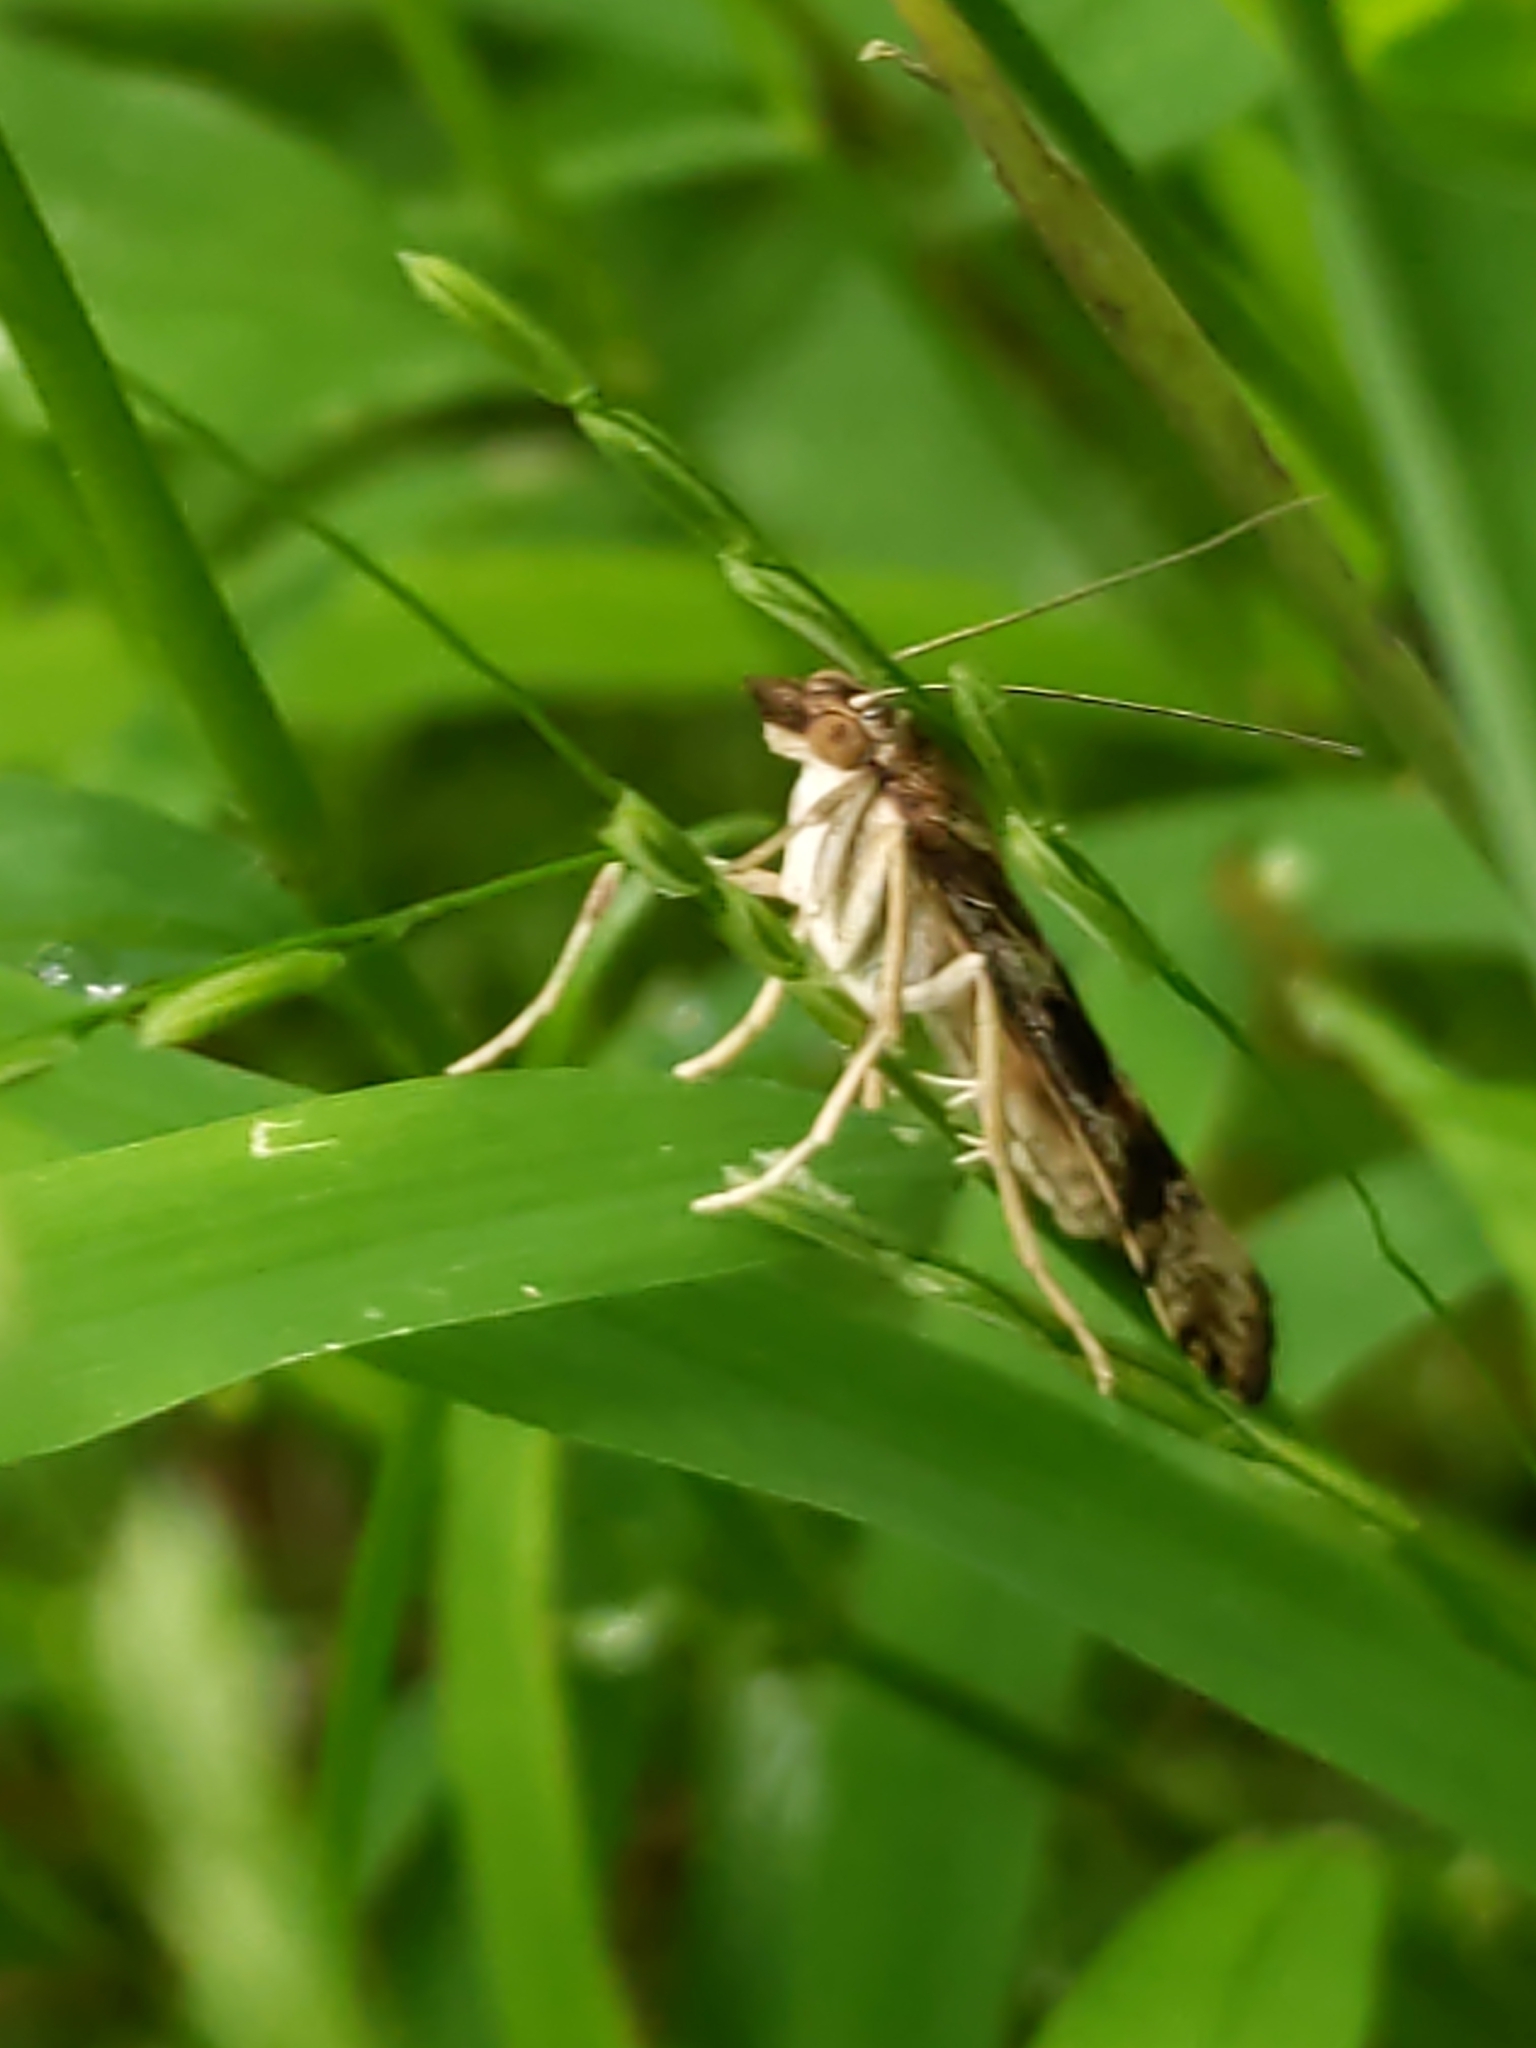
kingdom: Animalia
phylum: Arthropoda
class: Insecta
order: Lepidoptera
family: Crambidae
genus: Nomophila
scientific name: Nomophila nearctica
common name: American rush veneer
